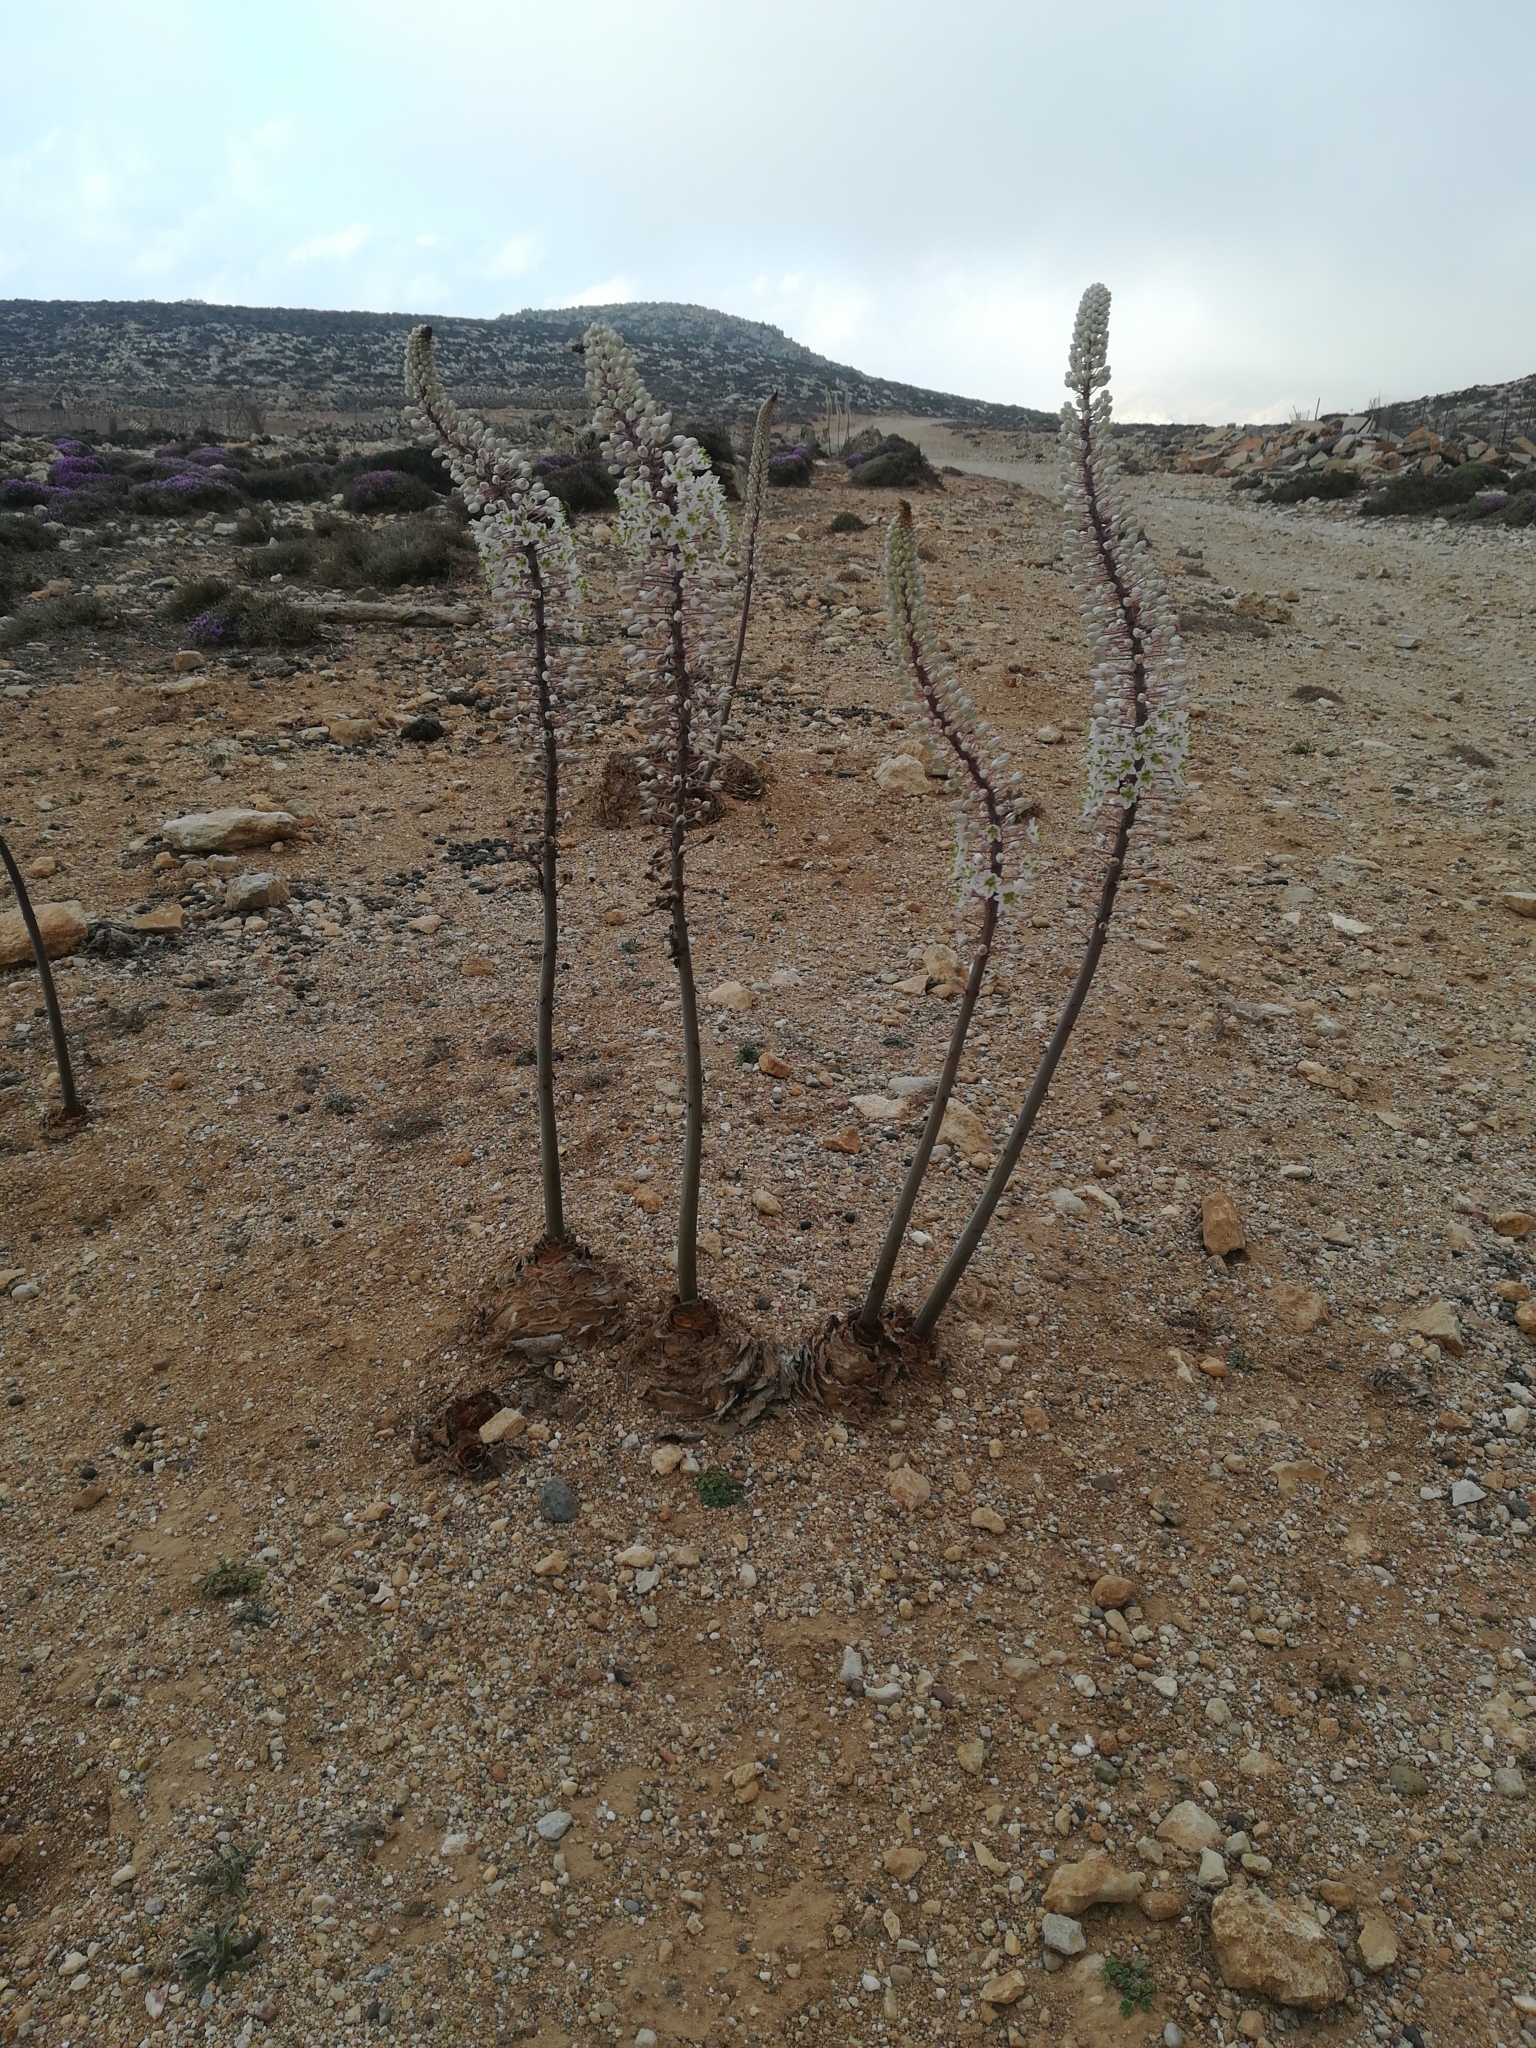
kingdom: Plantae
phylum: Tracheophyta
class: Liliopsida
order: Asparagales
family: Asparagaceae
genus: Drimia
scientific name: Drimia numidica
